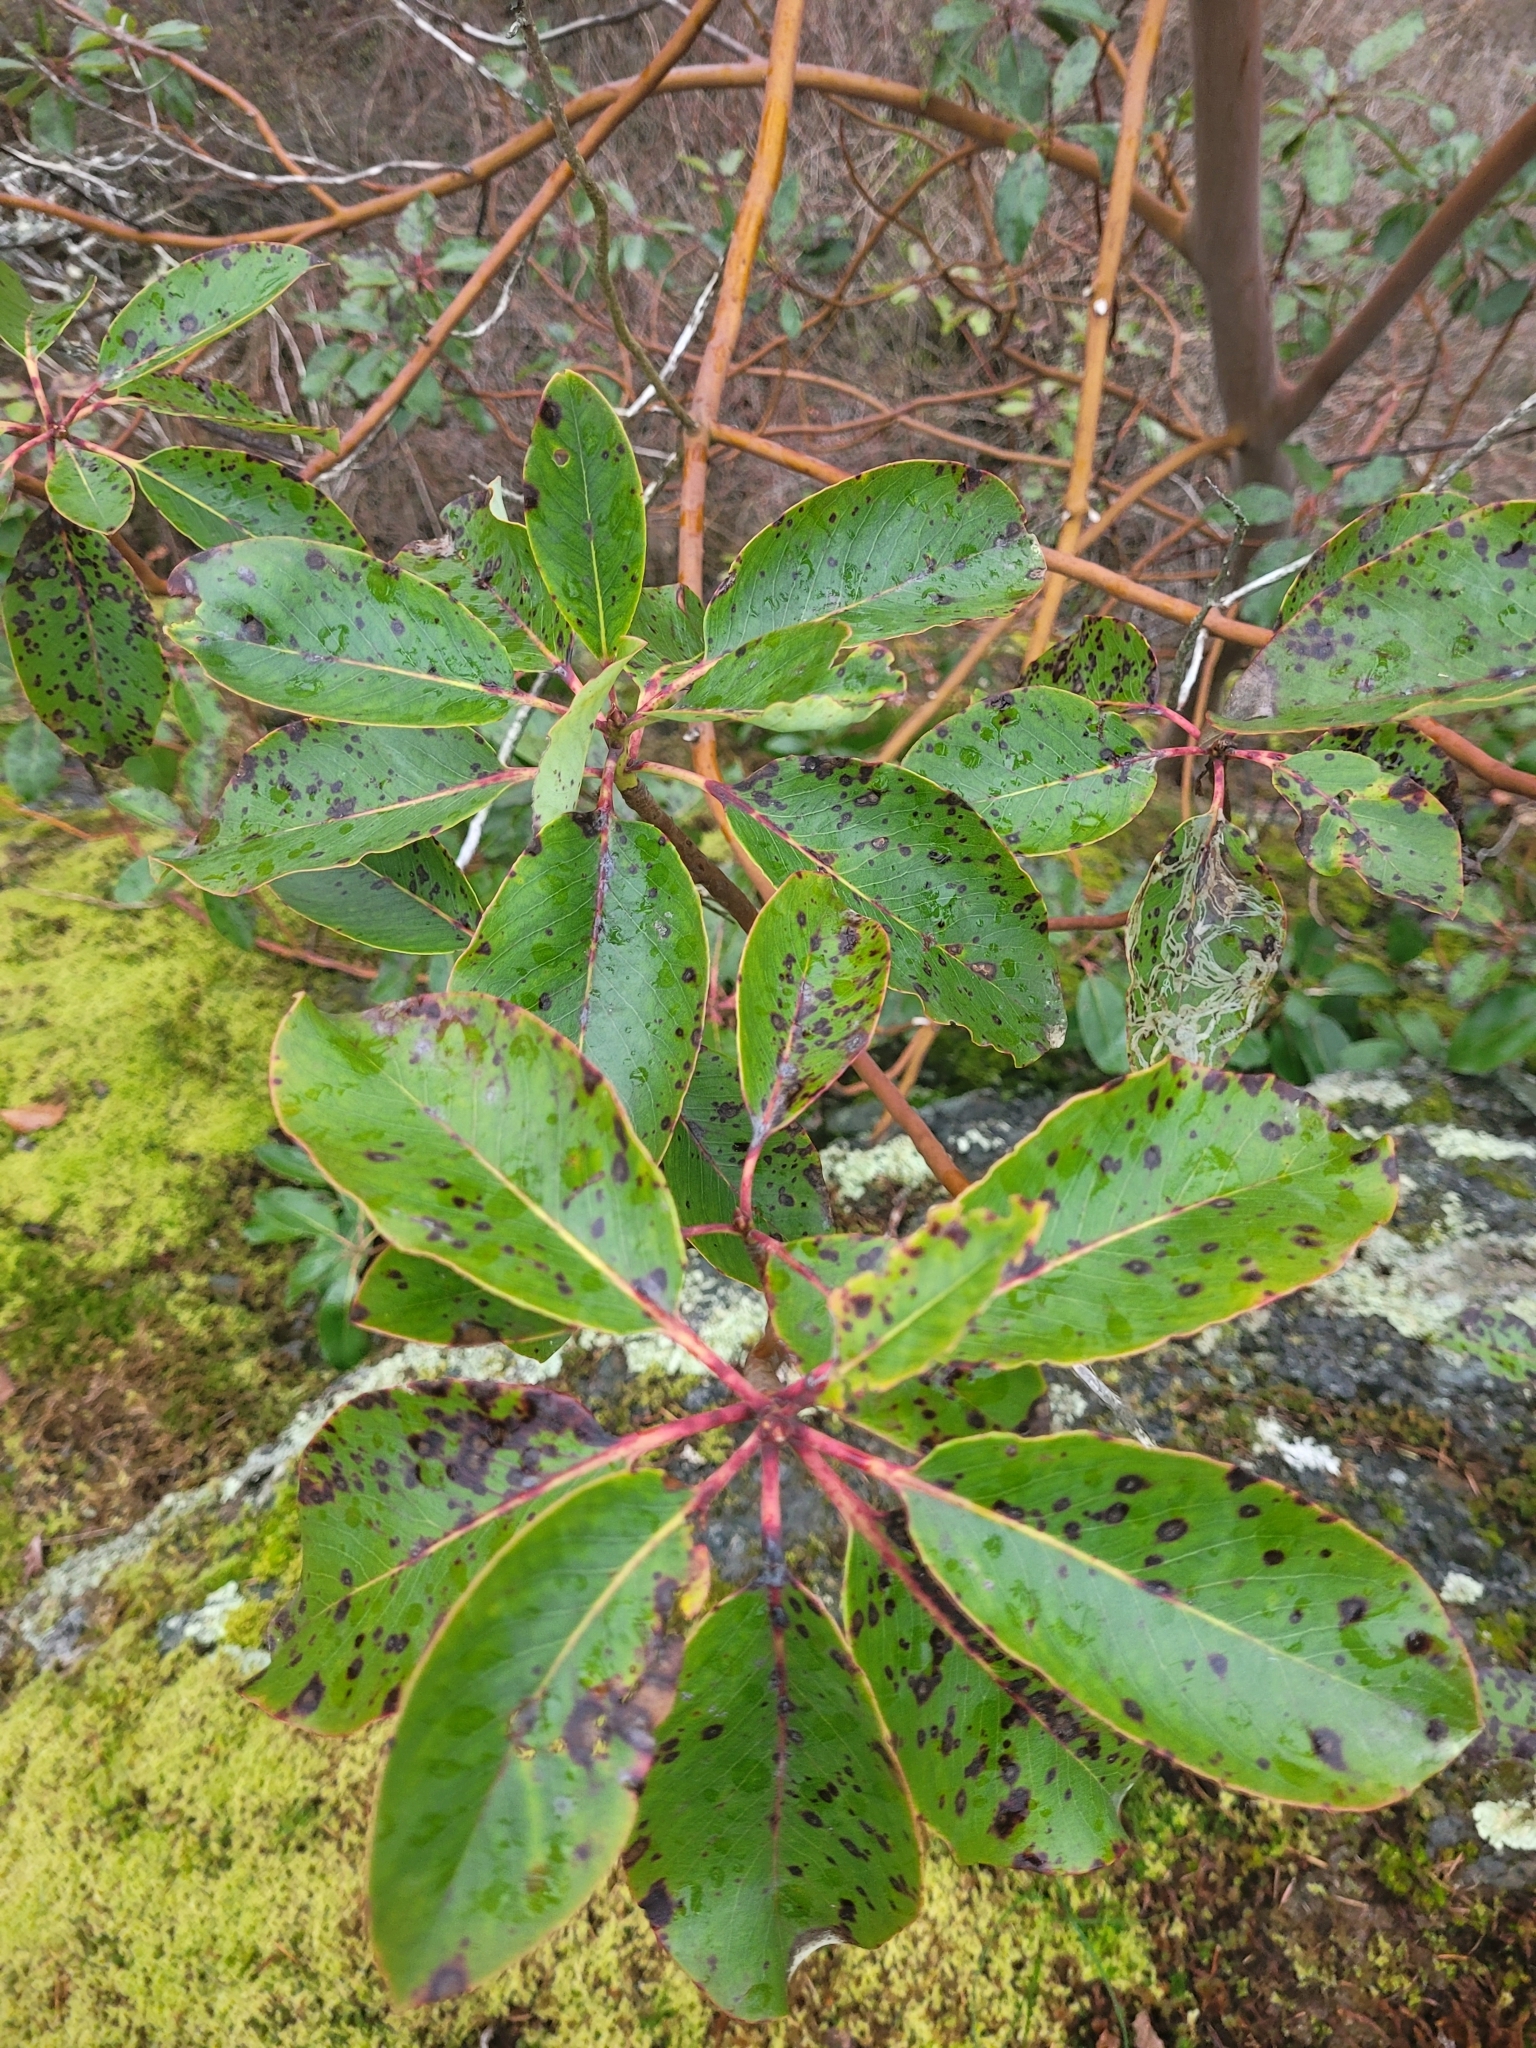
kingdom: Plantae
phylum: Tracheophyta
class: Magnoliopsida
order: Ericales
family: Ericaceae
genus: Arbutus
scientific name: Arbutus menziesii
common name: Pacific madrone
